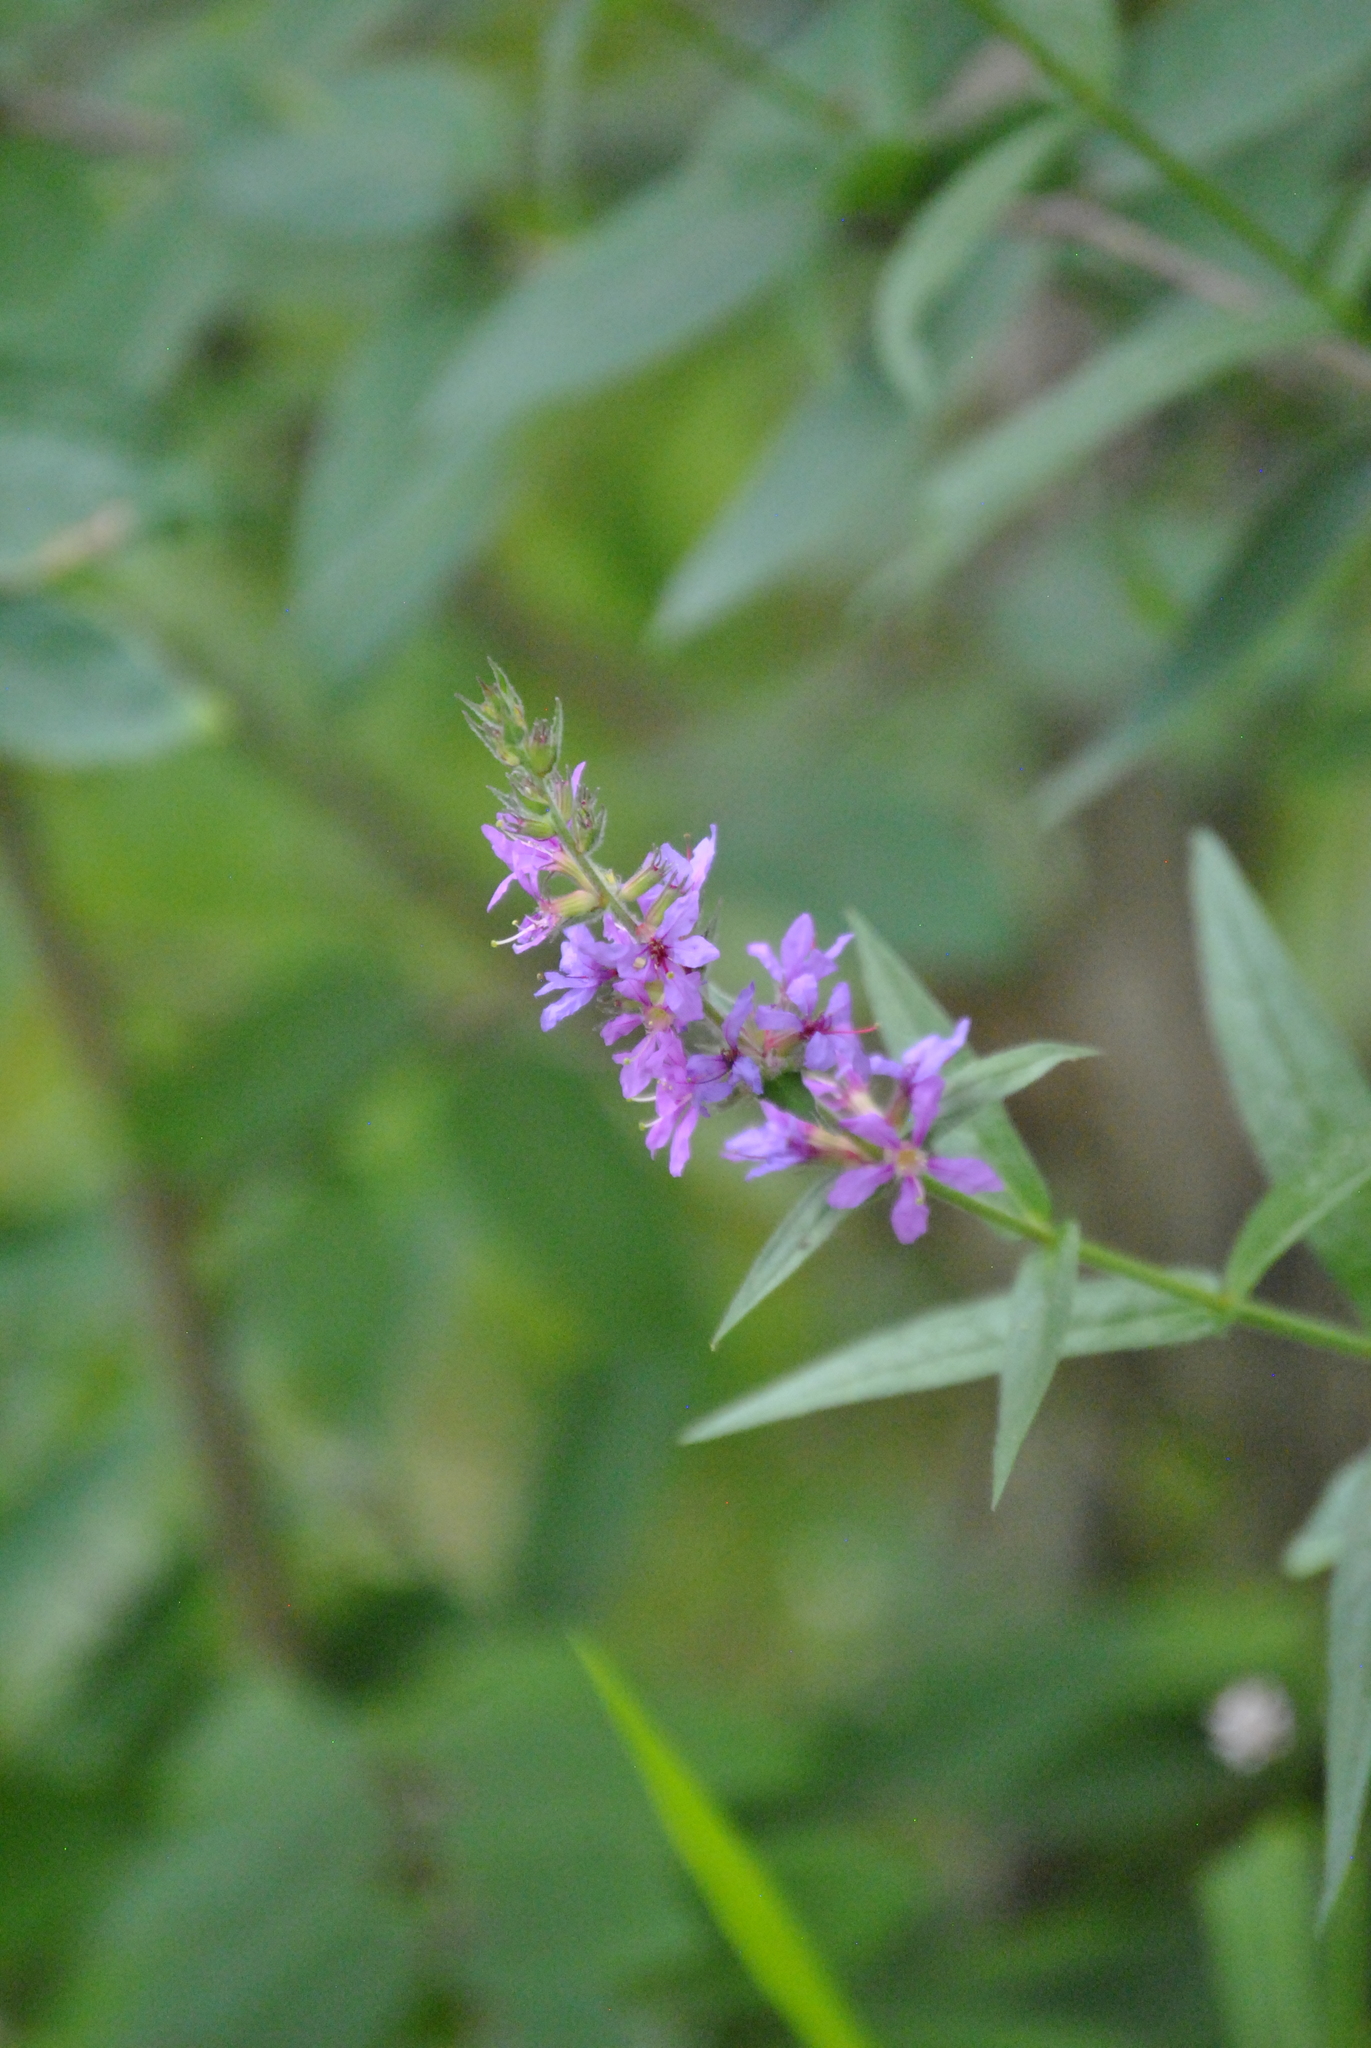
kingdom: Plantae
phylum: Tracheophyta
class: Magnoliopsida
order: Myrtales
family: Lythraceae
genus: Lythrum
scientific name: Lythrum salicaria
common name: Purple loosestrife
